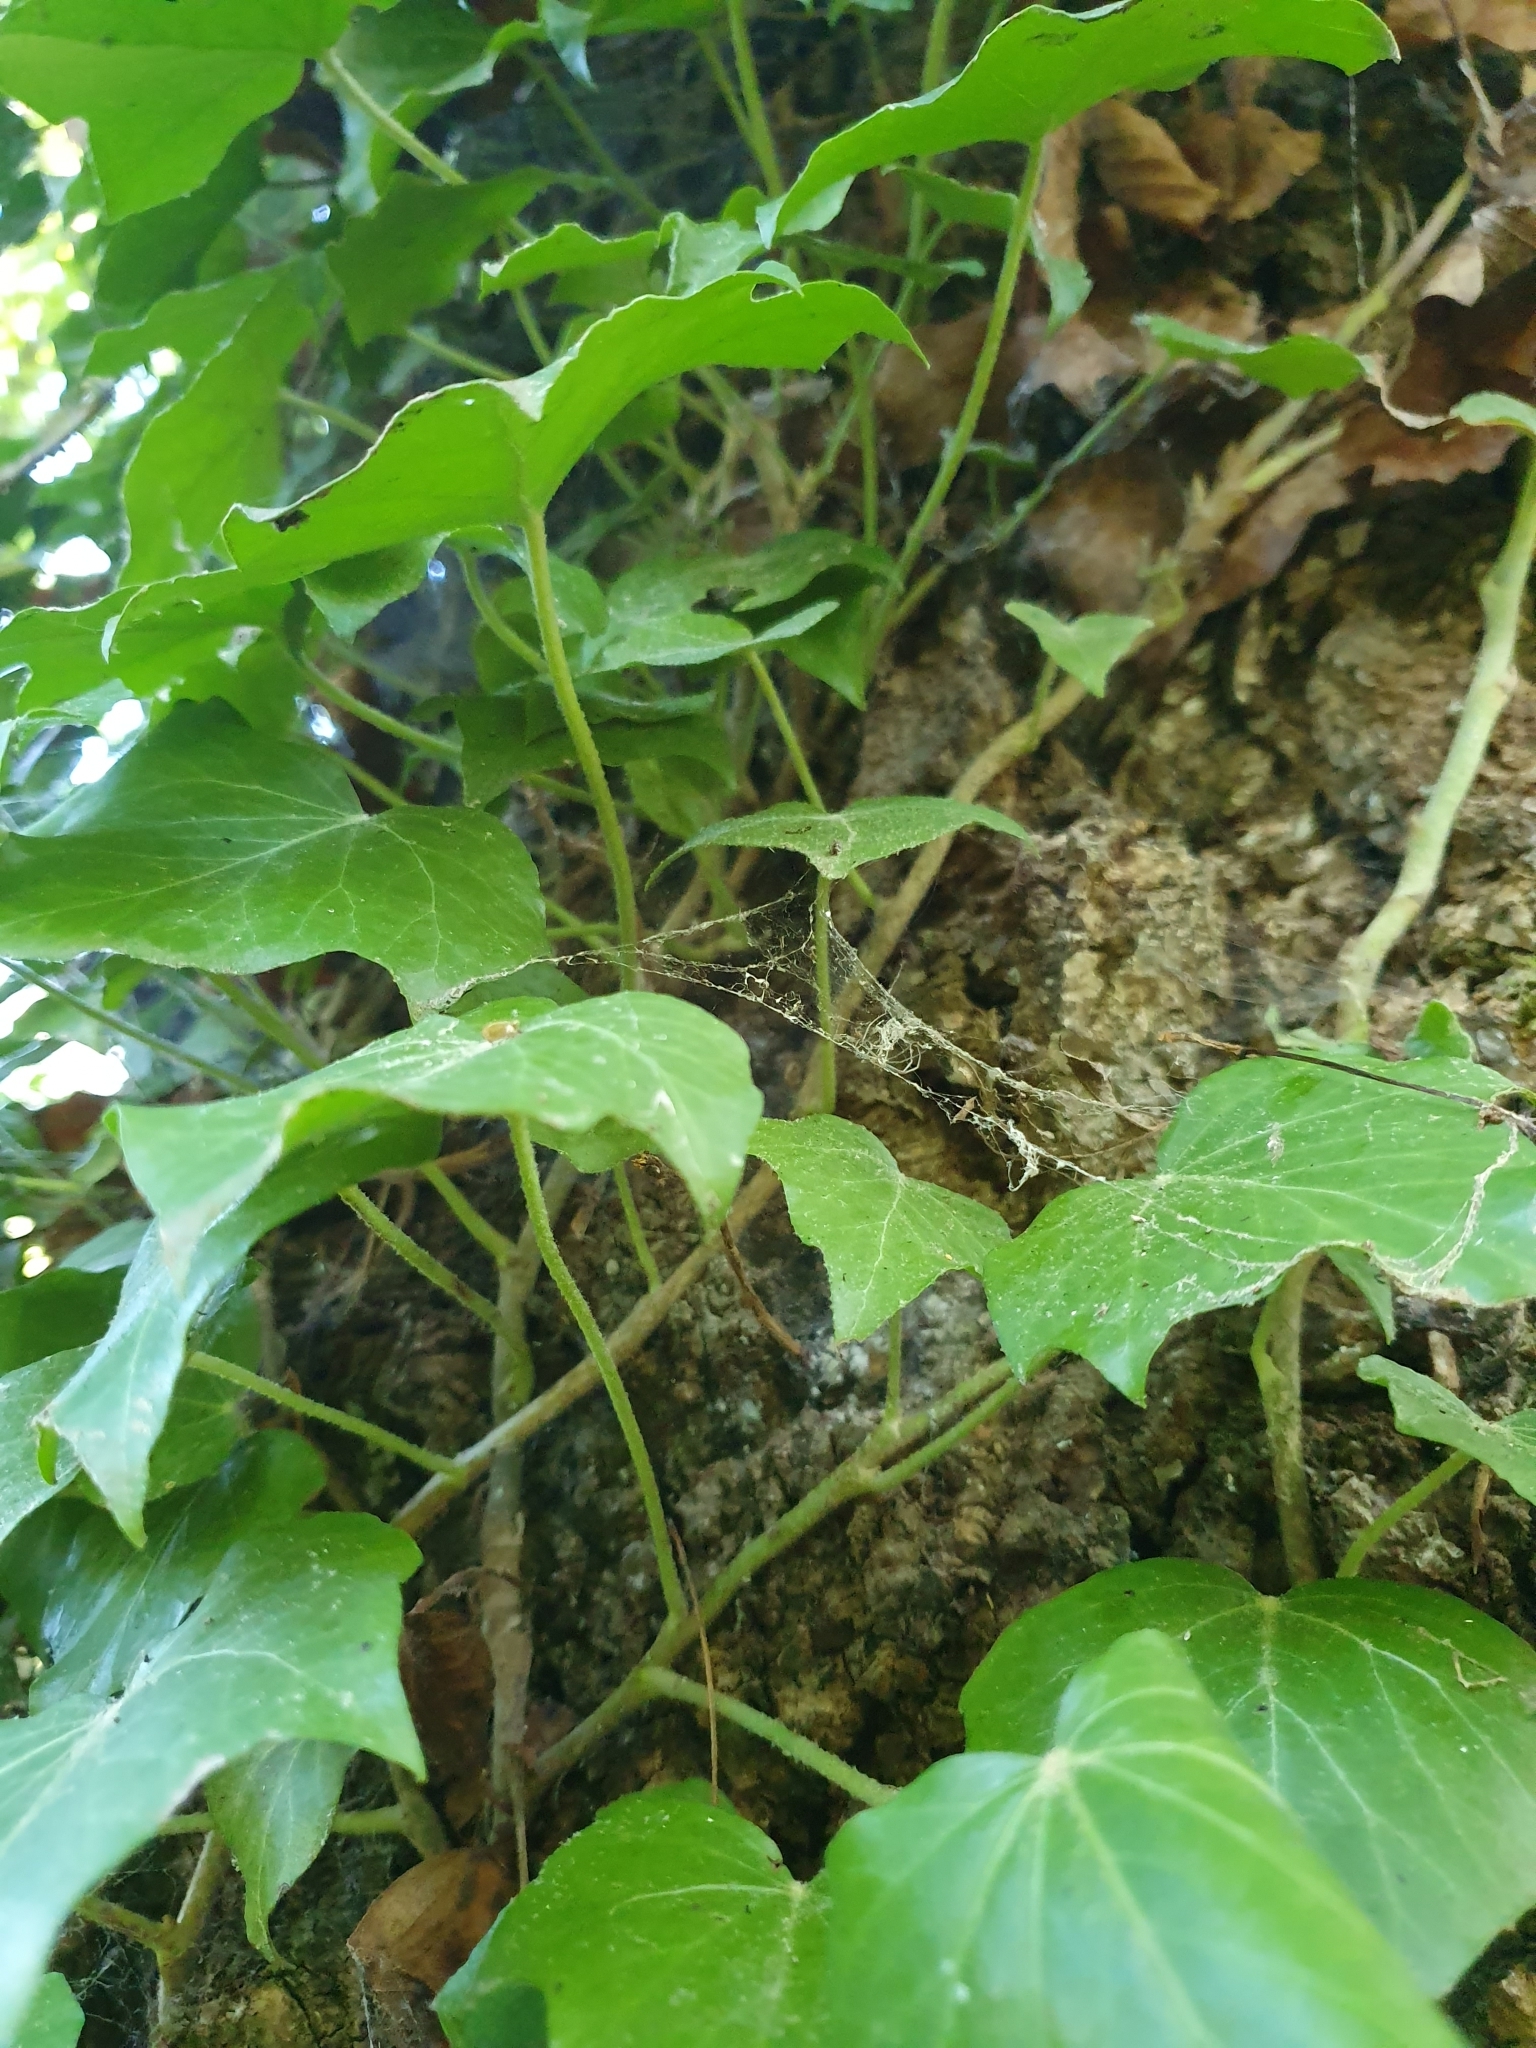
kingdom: Plantae
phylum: Tracheophyta
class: Magnoliopsida
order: Apiales
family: Araliaceae
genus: Hedera
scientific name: Hedera helix
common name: Ivy
